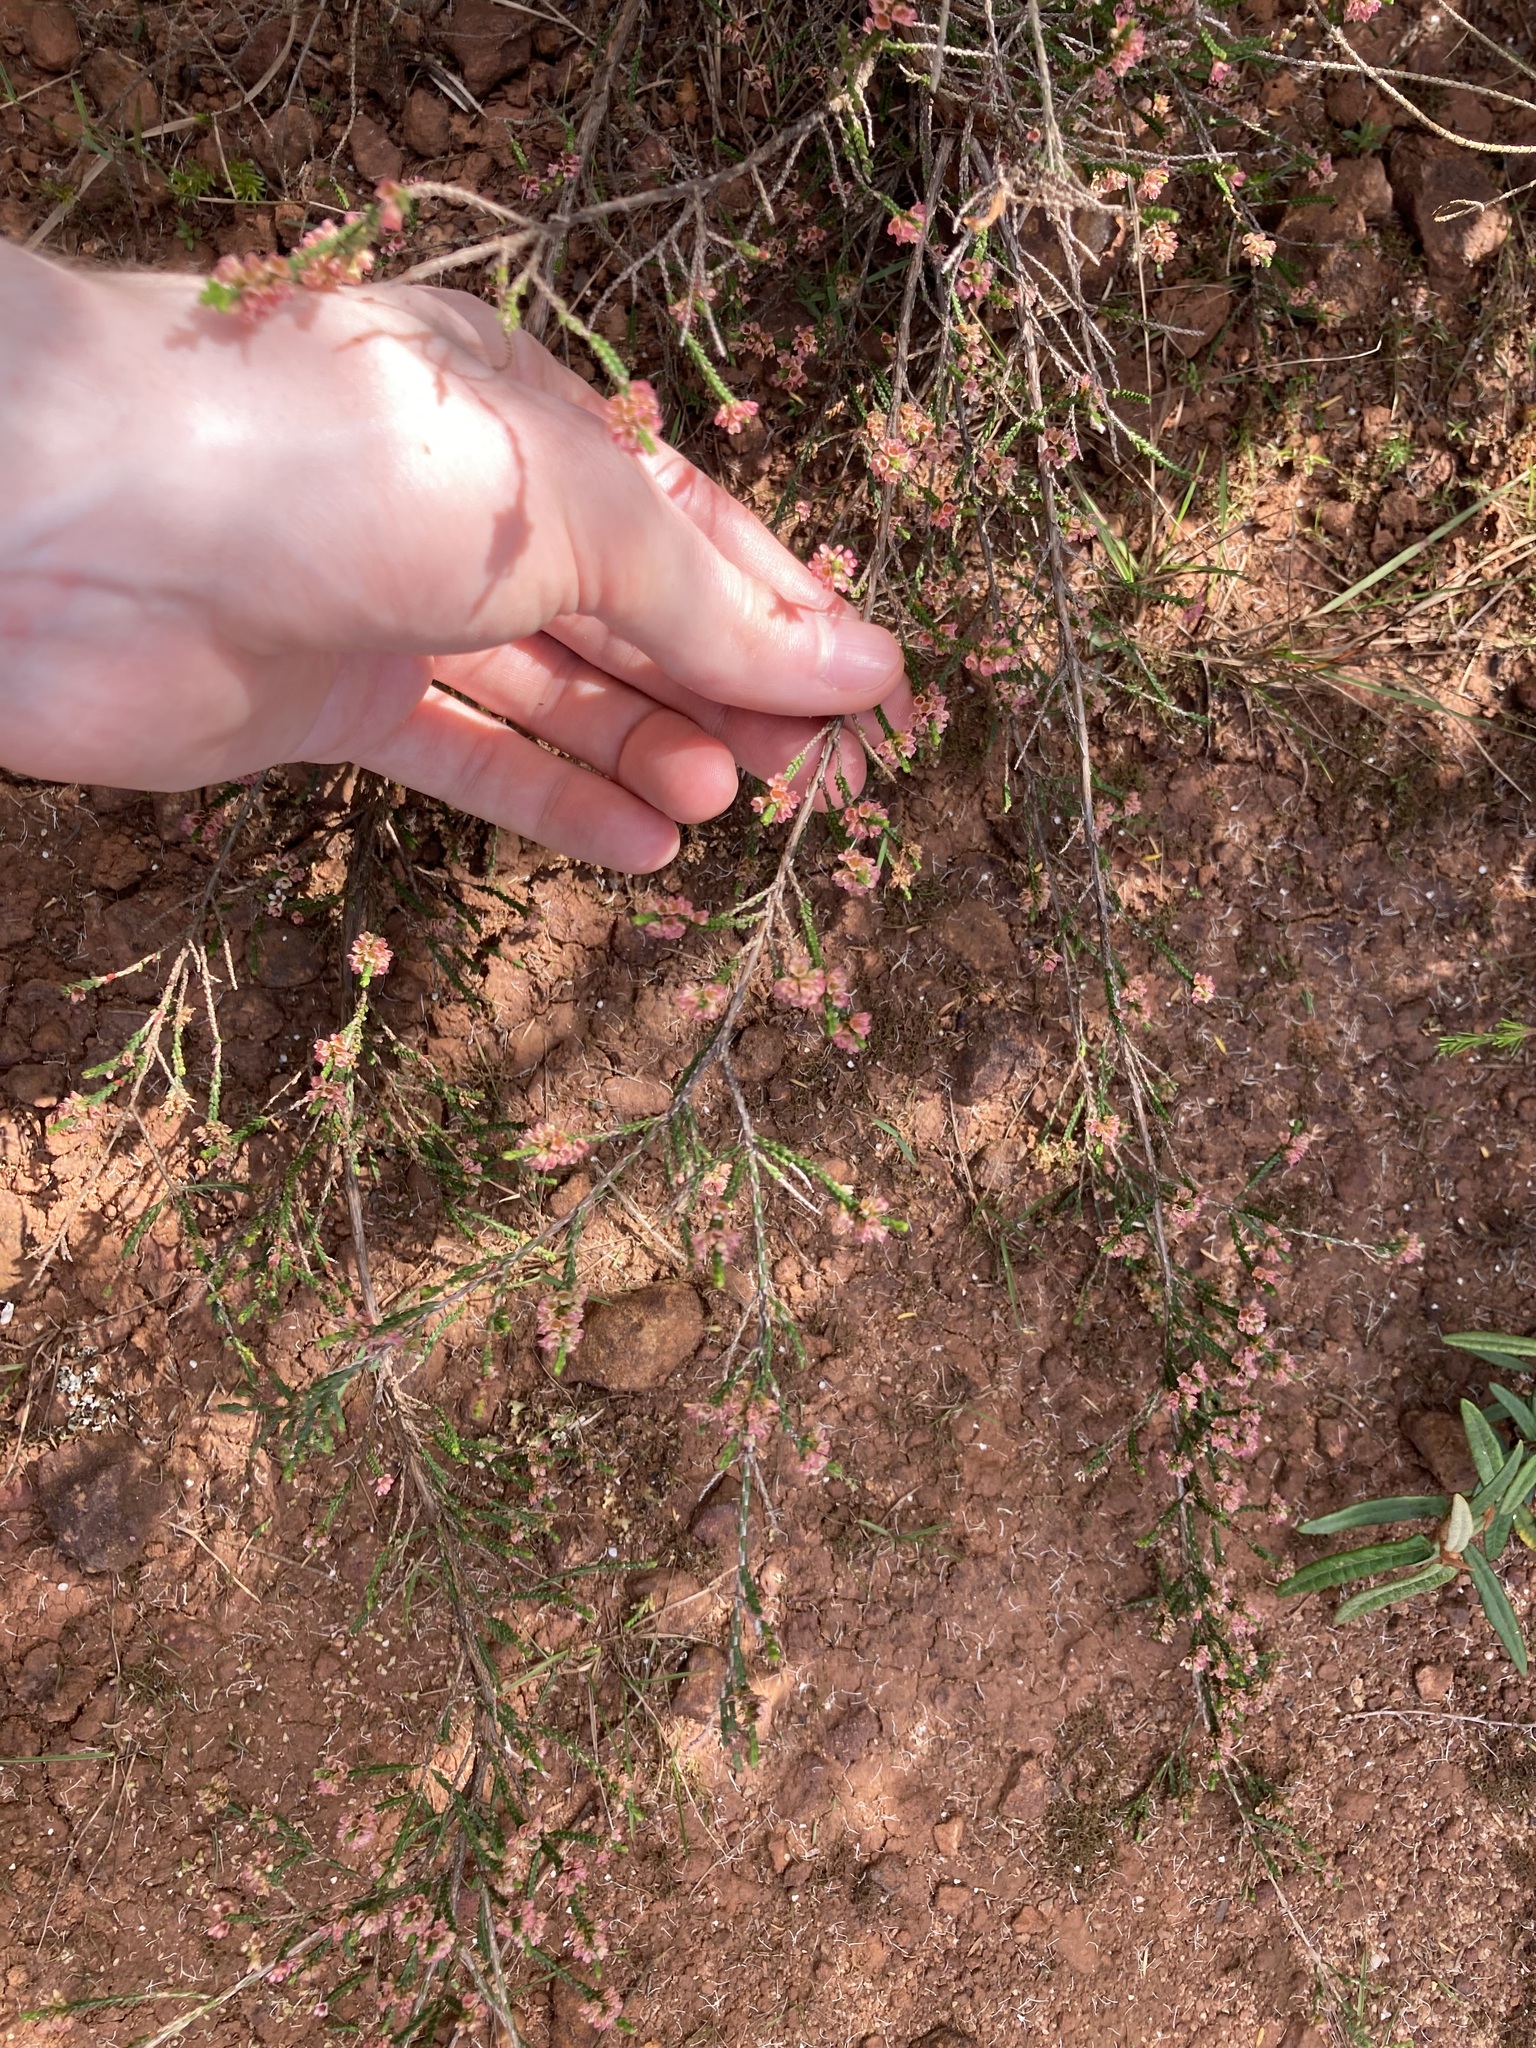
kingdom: Plantae
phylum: Tracheophyta
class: Magnoliopsida
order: Myrtales
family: Myrtaceae
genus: Micromyrtus
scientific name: Micromyrtus ciliata
